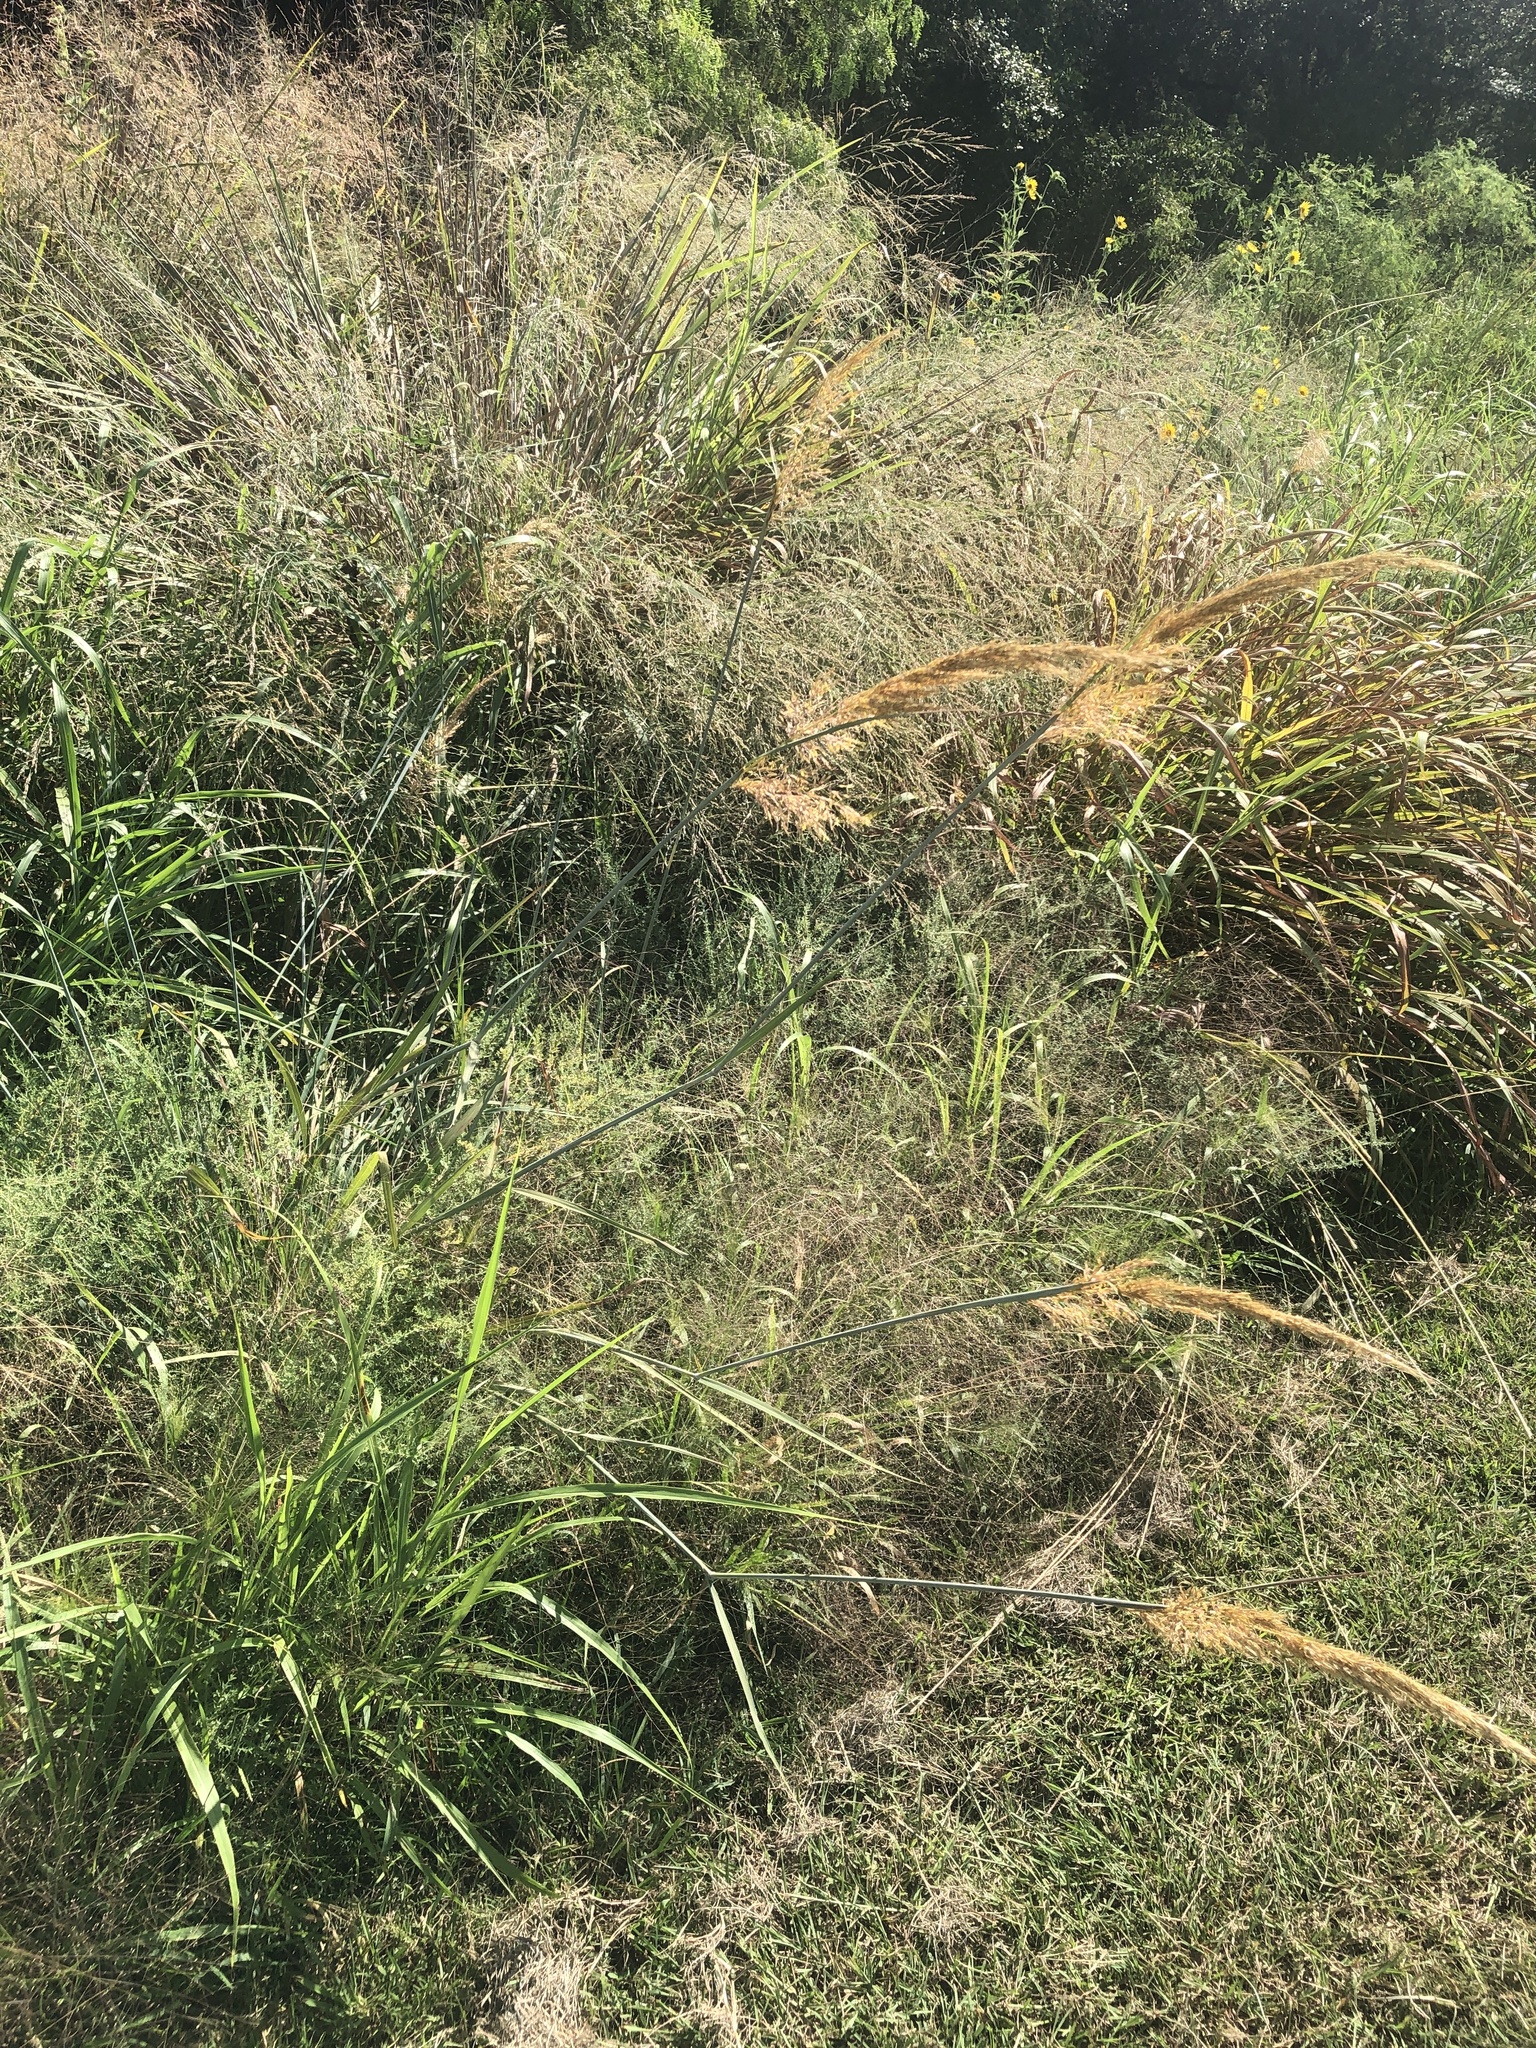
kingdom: Plantae
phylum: Tracheophyta
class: Liliopsida
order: Poales
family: Poaceae
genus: Sorghastrum
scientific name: Sorghastrum nutans
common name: Indian grass
